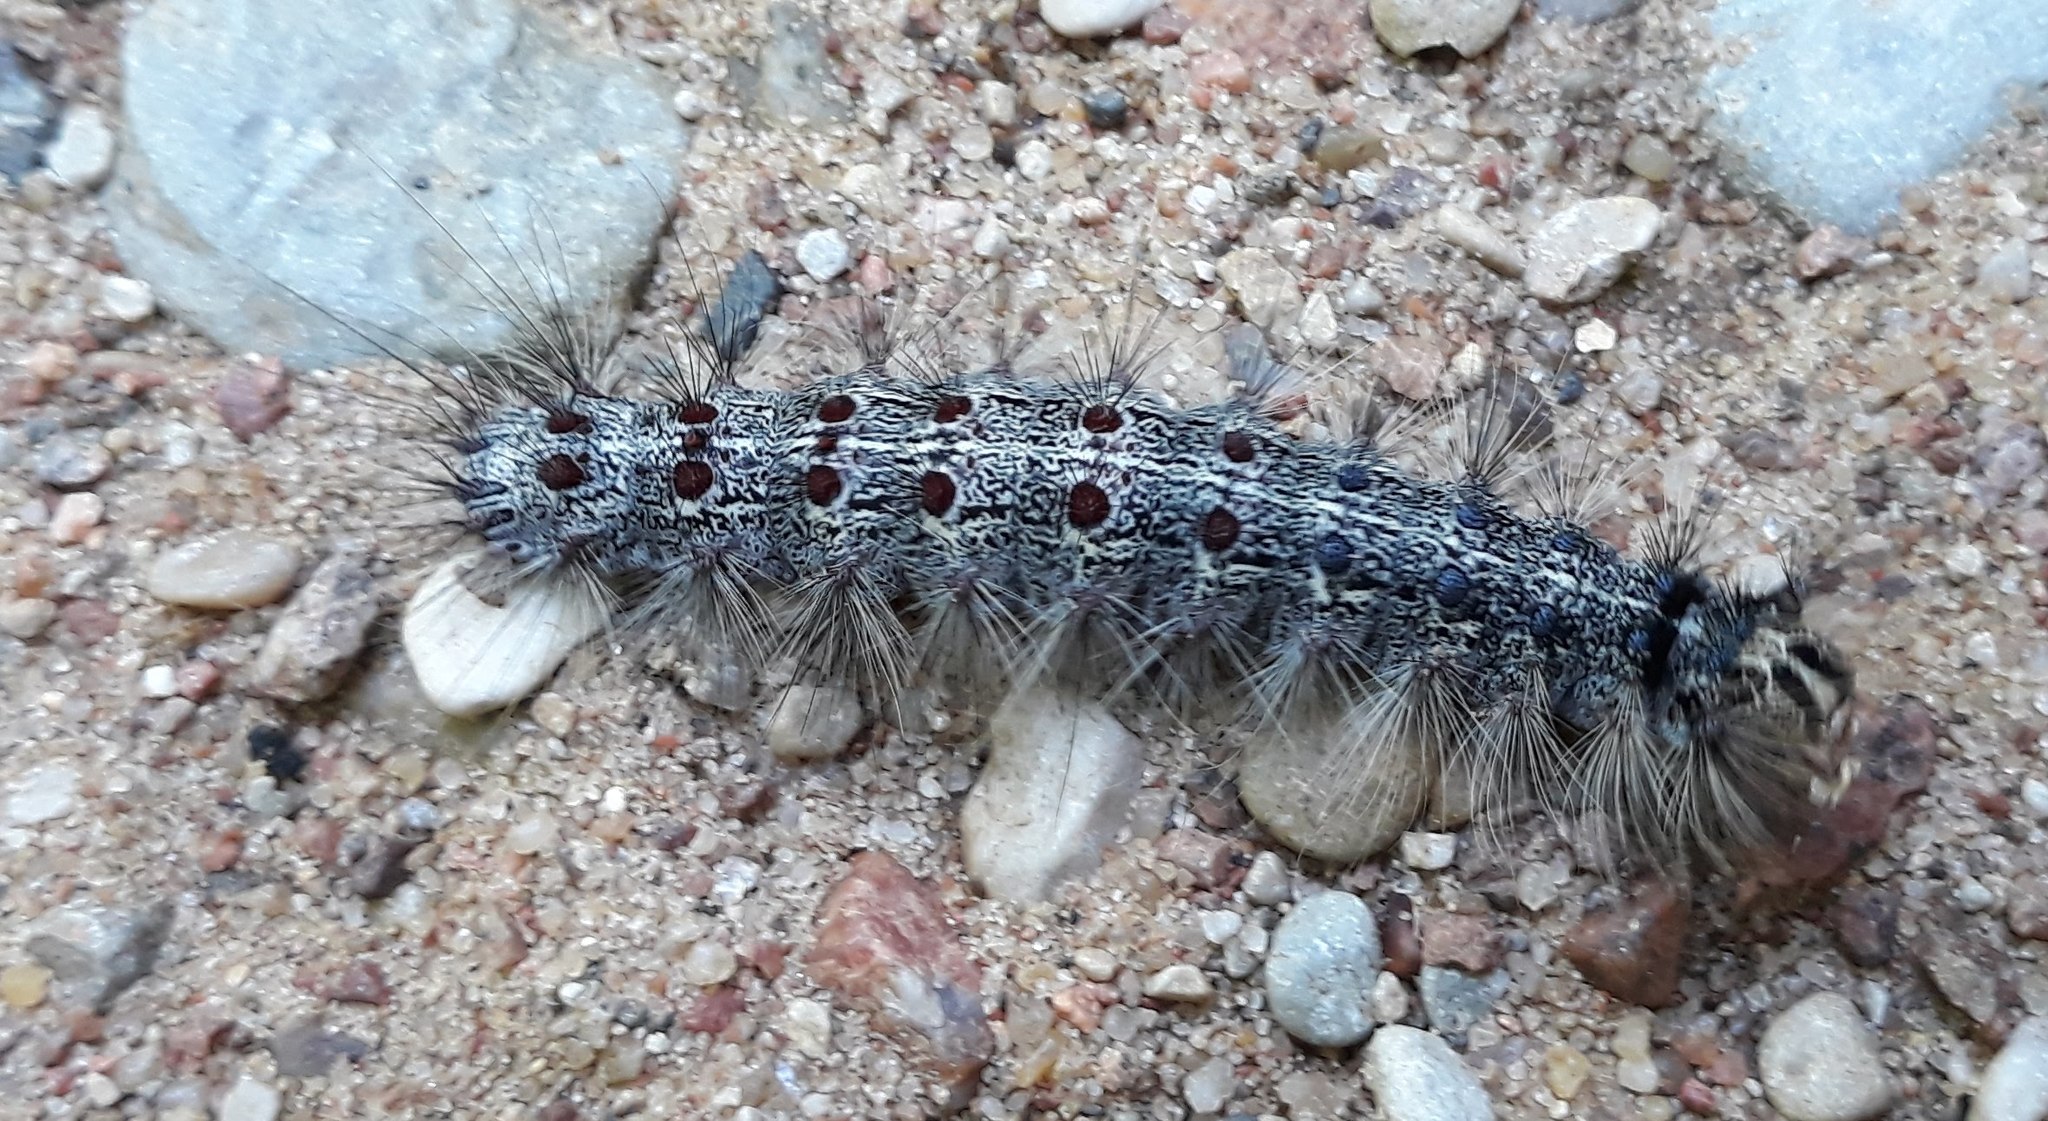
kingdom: Animalia
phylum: Arthropoda
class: Insecta
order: Lepidoptera
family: Erebidae
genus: Lymantria
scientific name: Lymantria dispar
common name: Gypsy moth
